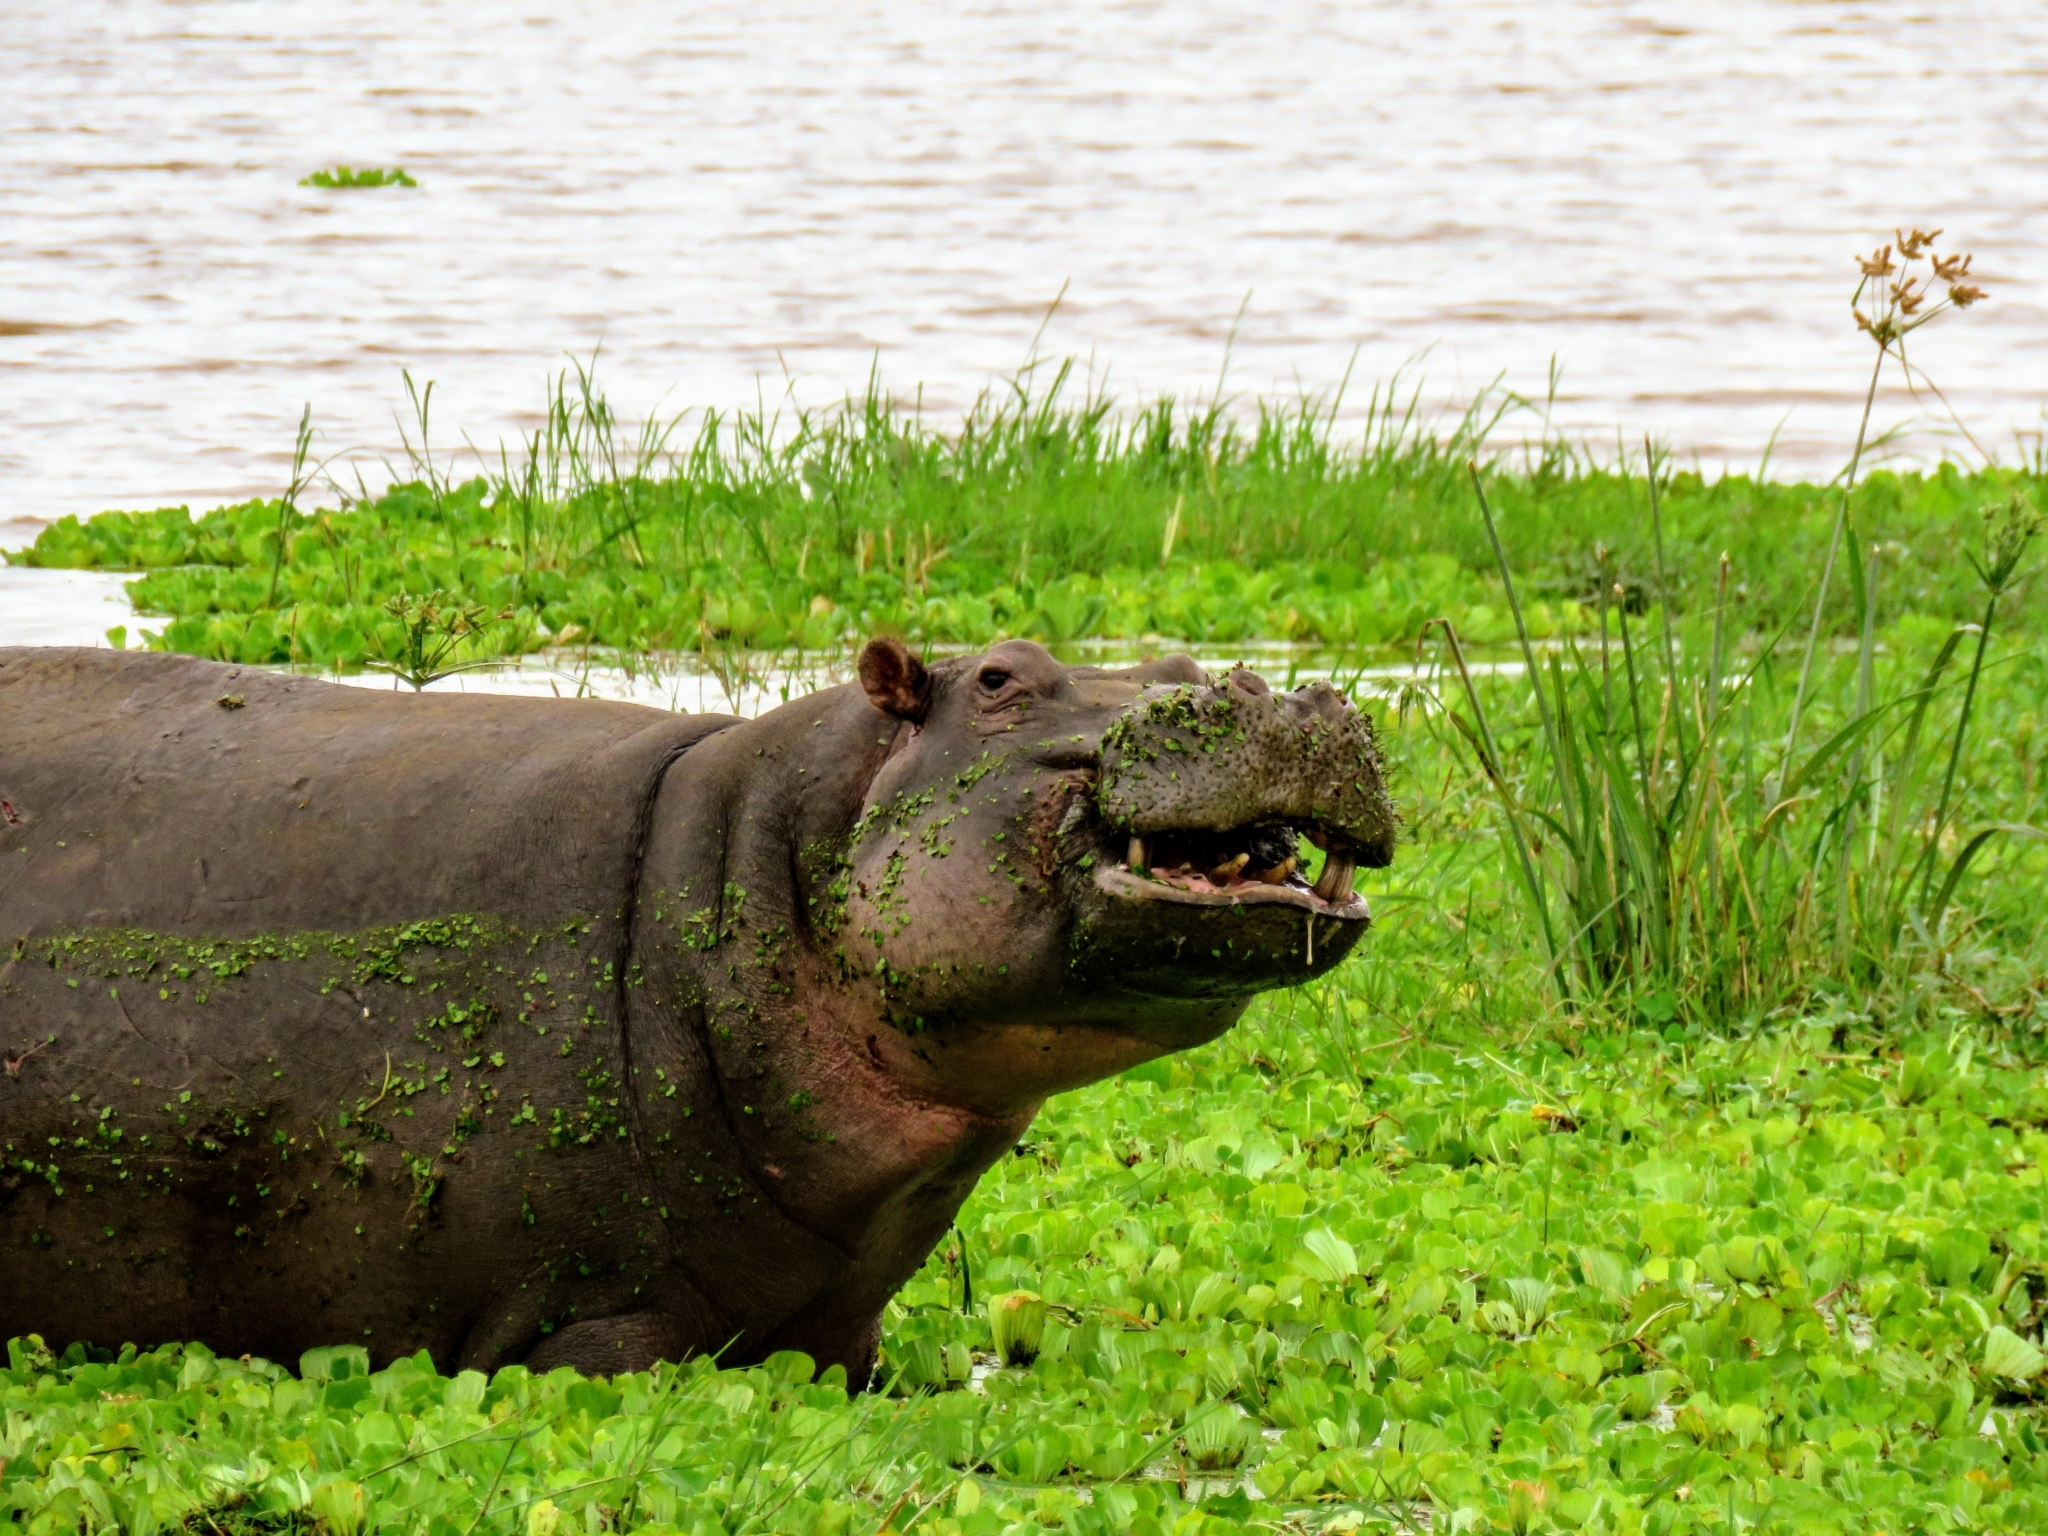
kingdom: Animalia
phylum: Chordata
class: Mammalia
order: Artiodactyla
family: Hippopotamidae
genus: Hippopotamus
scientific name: Hippopotamus amphibius
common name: Common hippopotamus
